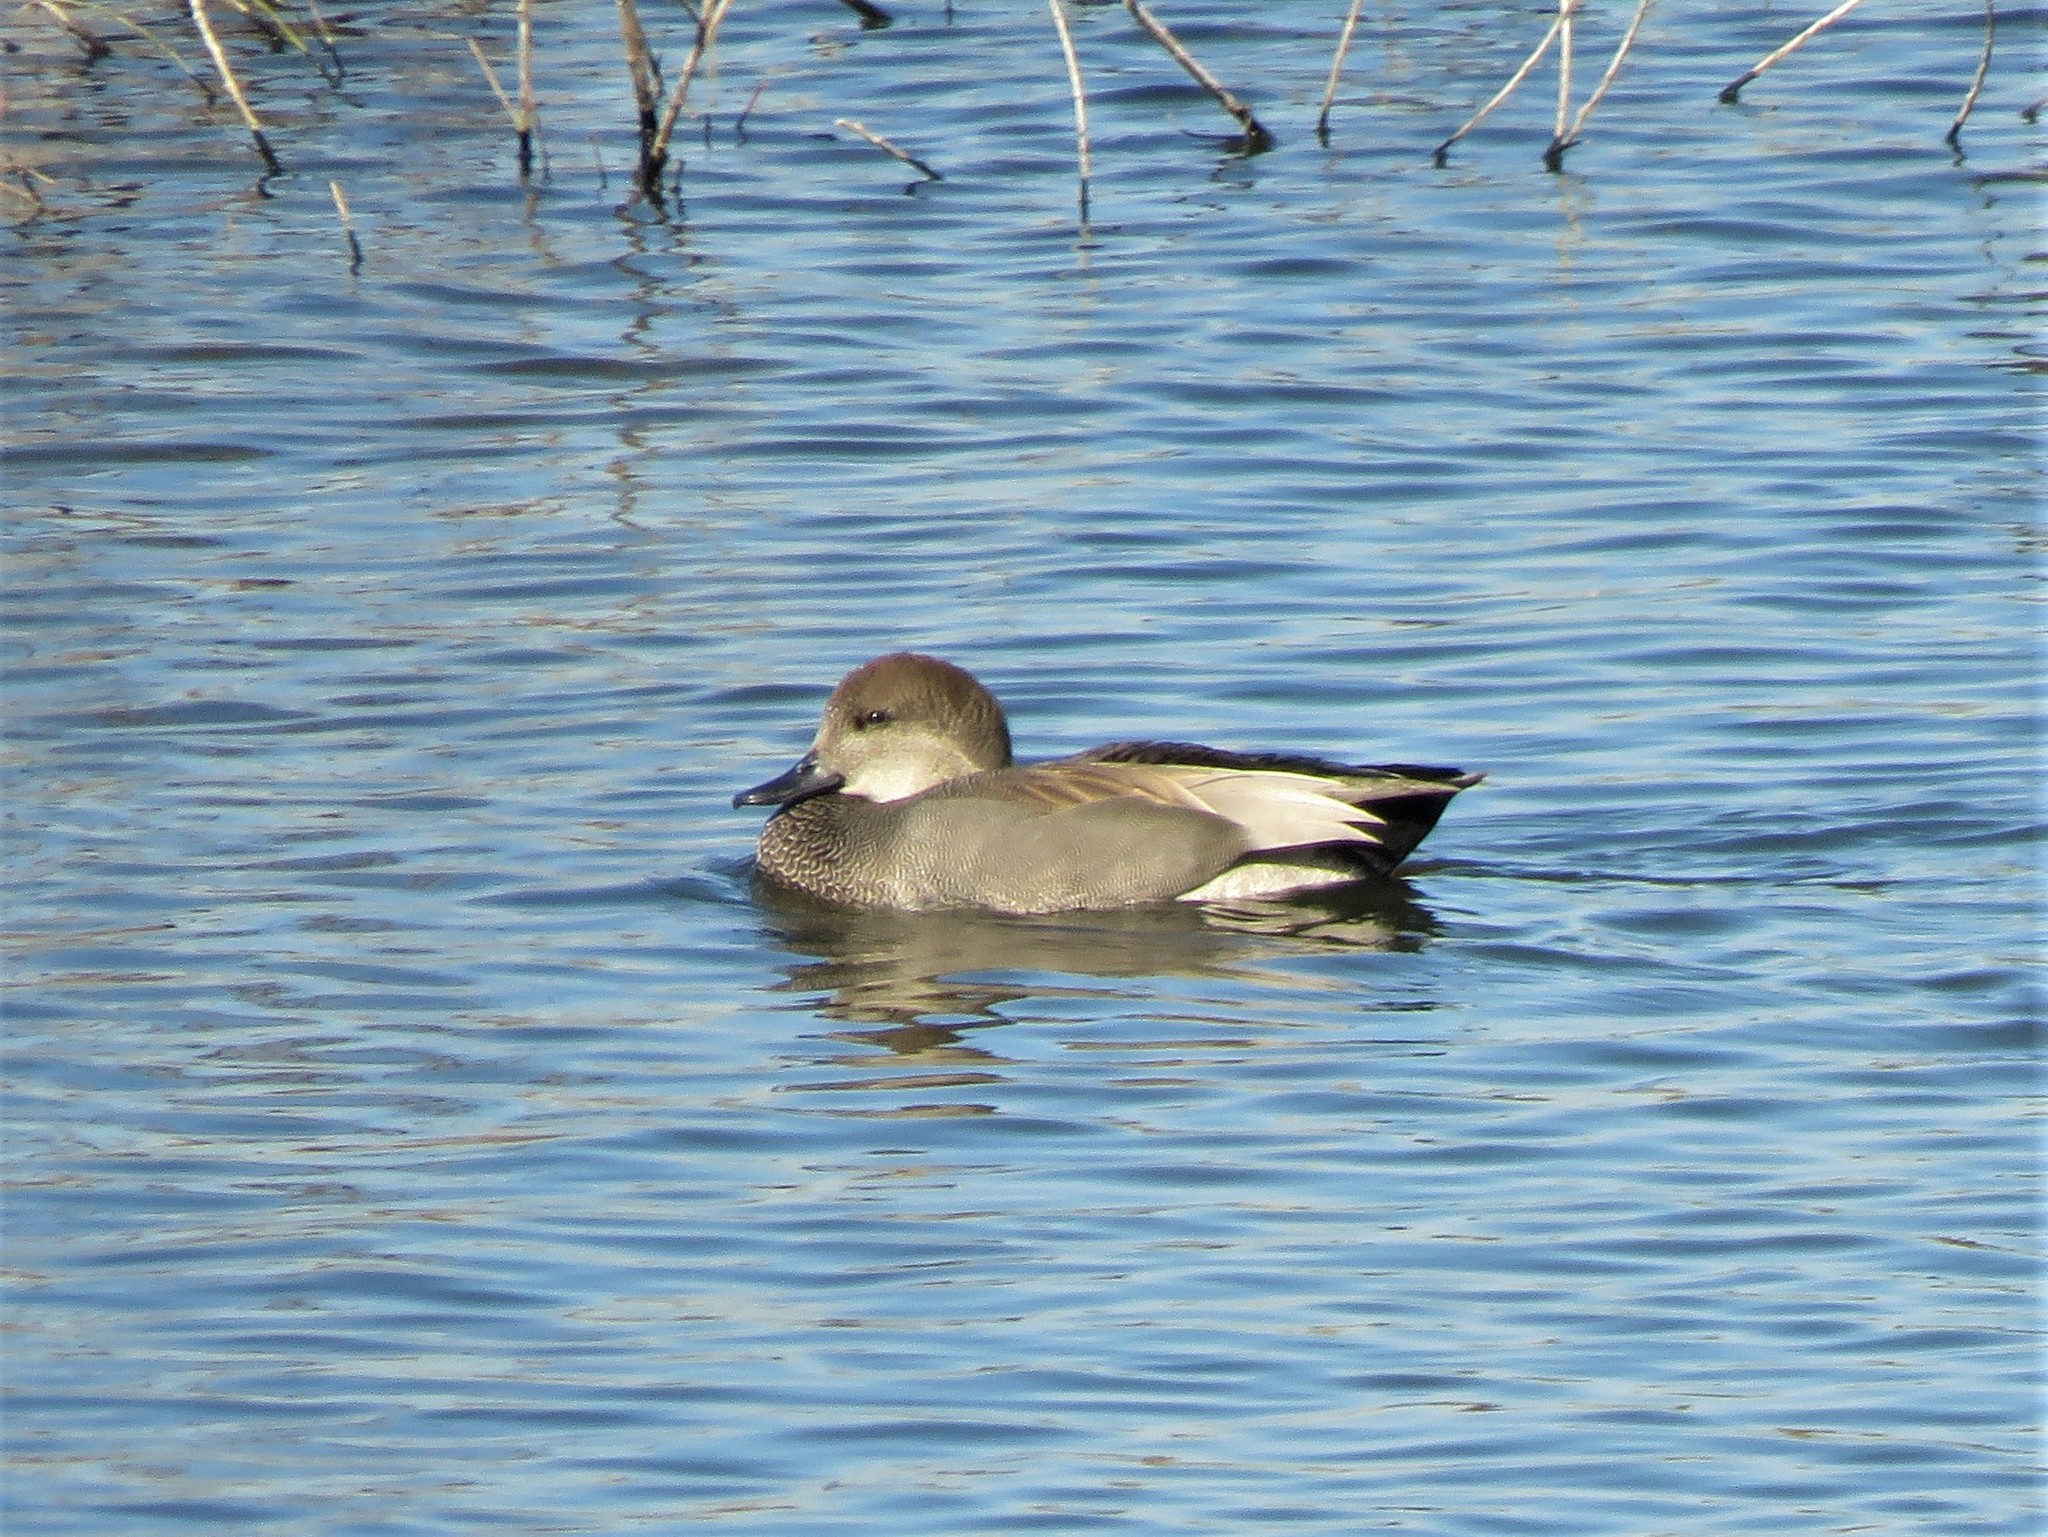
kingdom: Animalia
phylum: Chordata
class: Aves
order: Anseriformes
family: Anatidae
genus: Mareca
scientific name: Mareca strepera
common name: Gadwall
